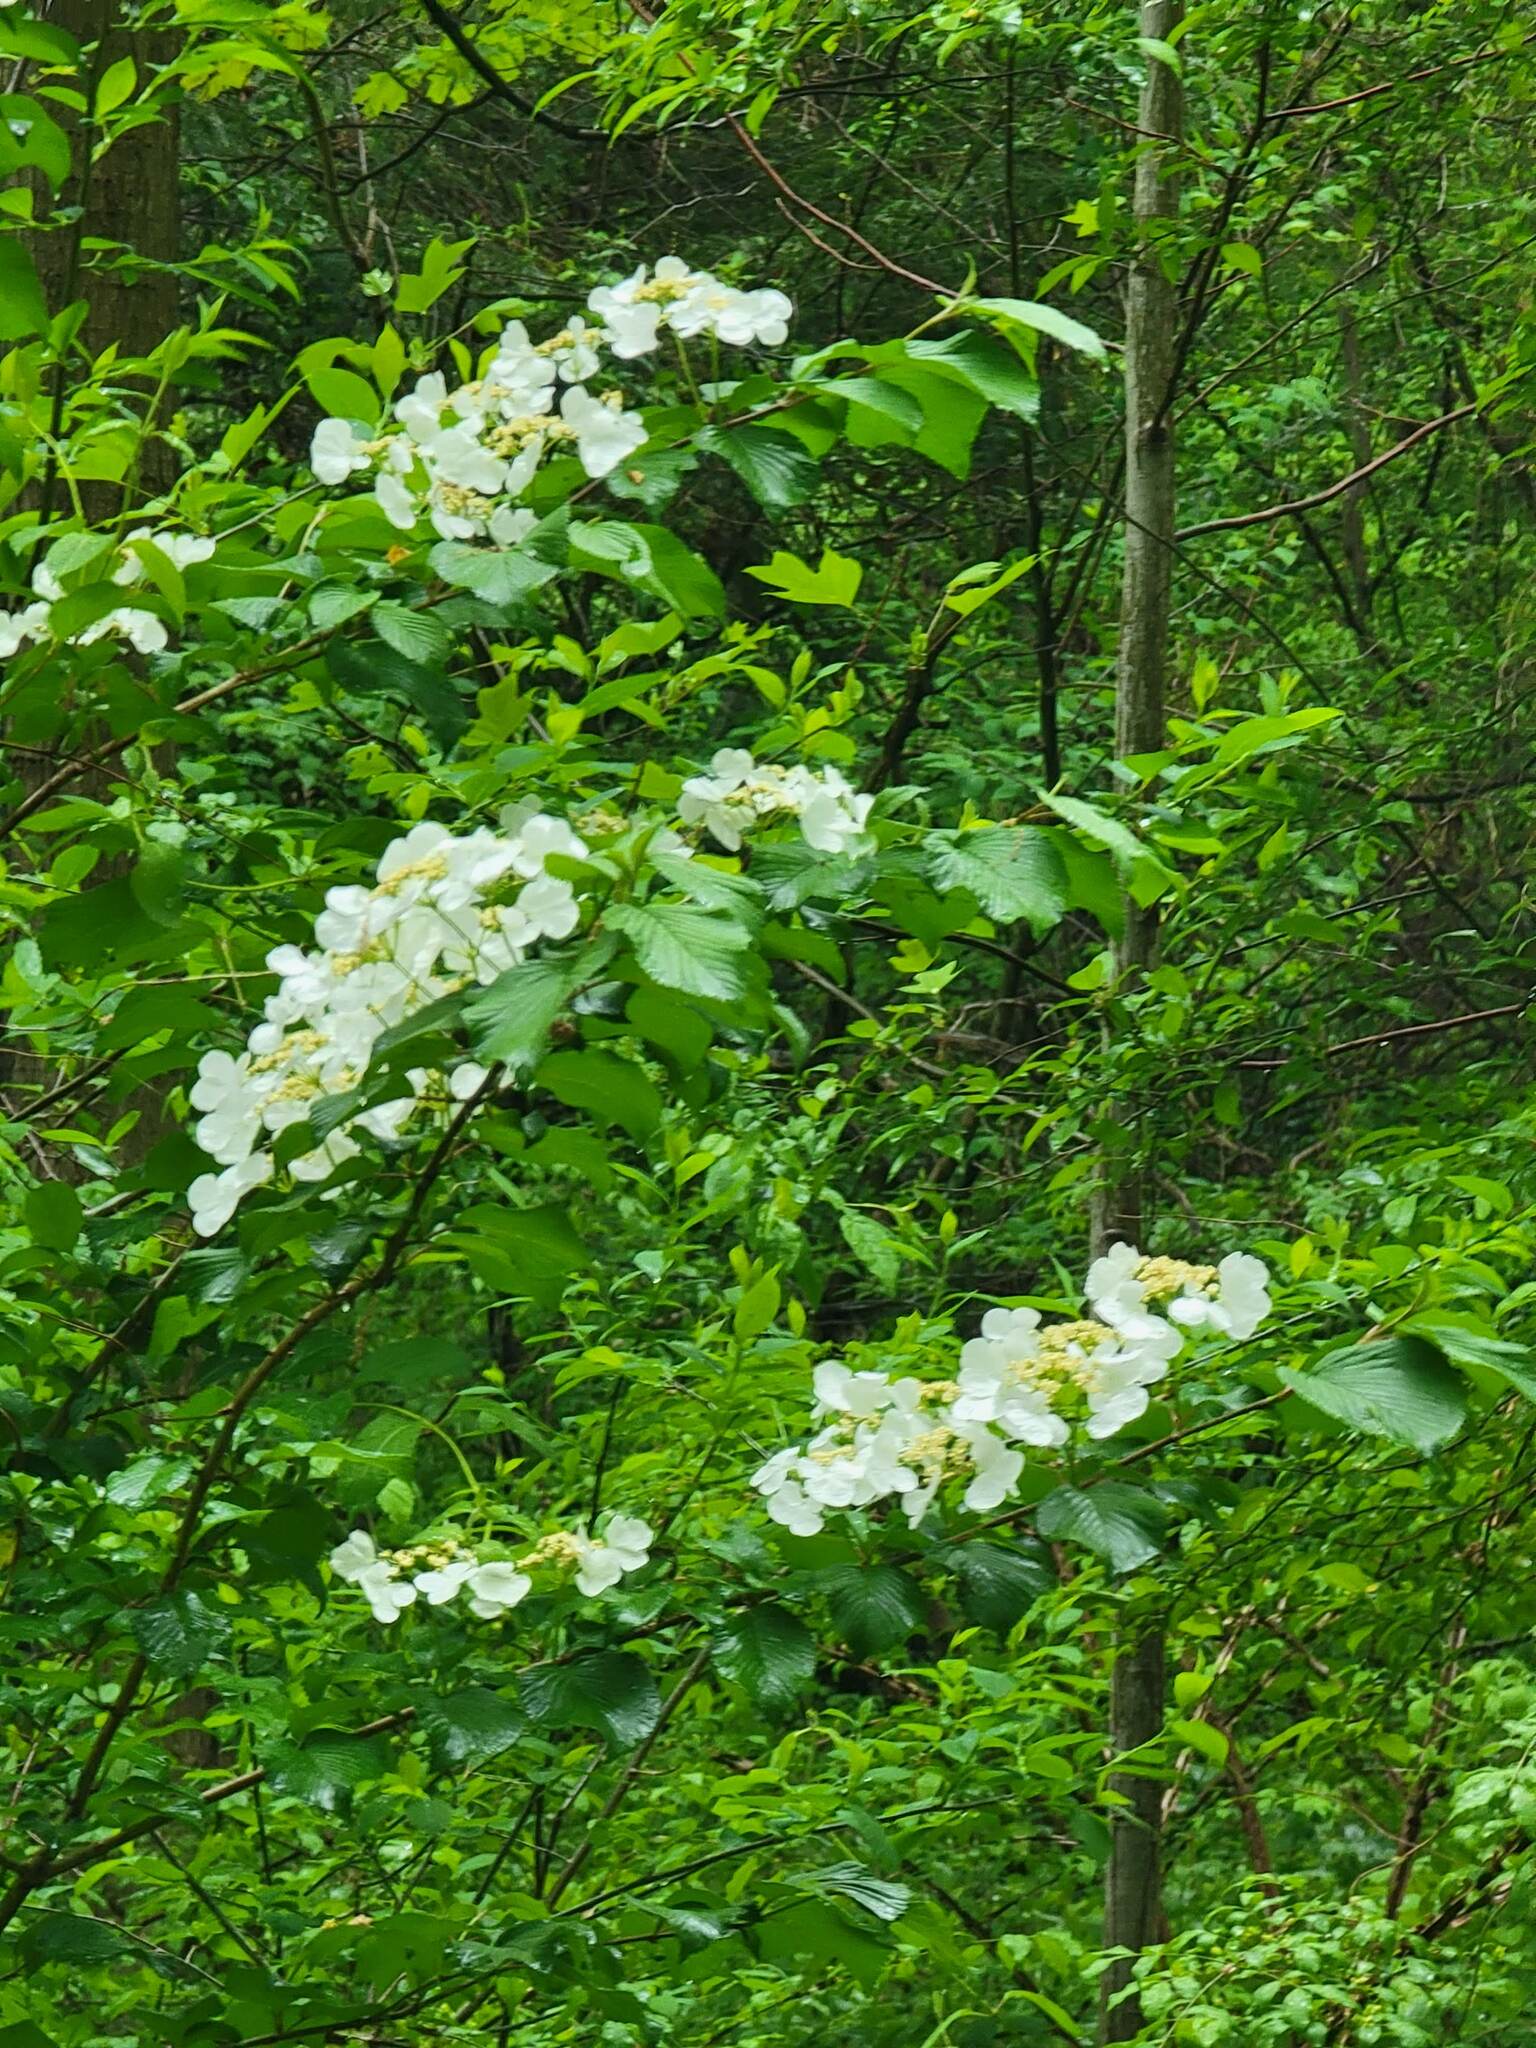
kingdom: Plantae
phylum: Tracheophyta
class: Magnoliopsida
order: Dipsacales
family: Viburnaceae
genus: Viburnum
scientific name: Viburnum plicatum
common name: Japanese snowball
